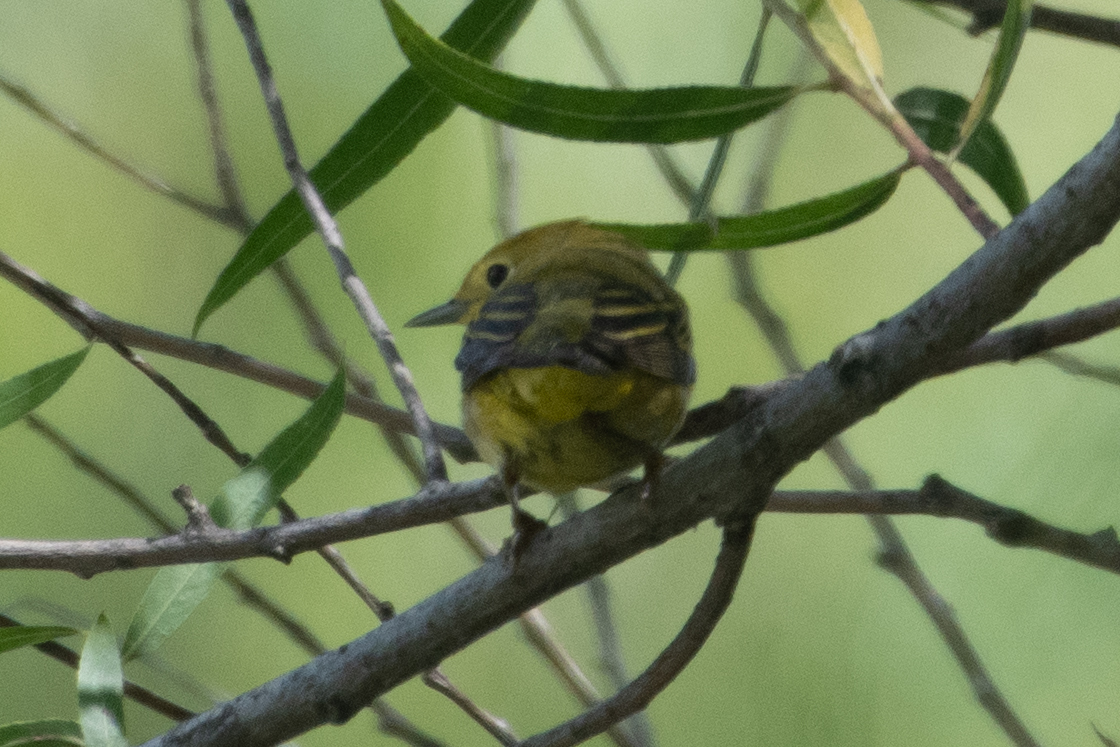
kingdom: Animalia
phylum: Chordata
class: Aves
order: Passeriformes
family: Parulidae
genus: Setophaga
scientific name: Setophaga petechia
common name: Yellow warbler
